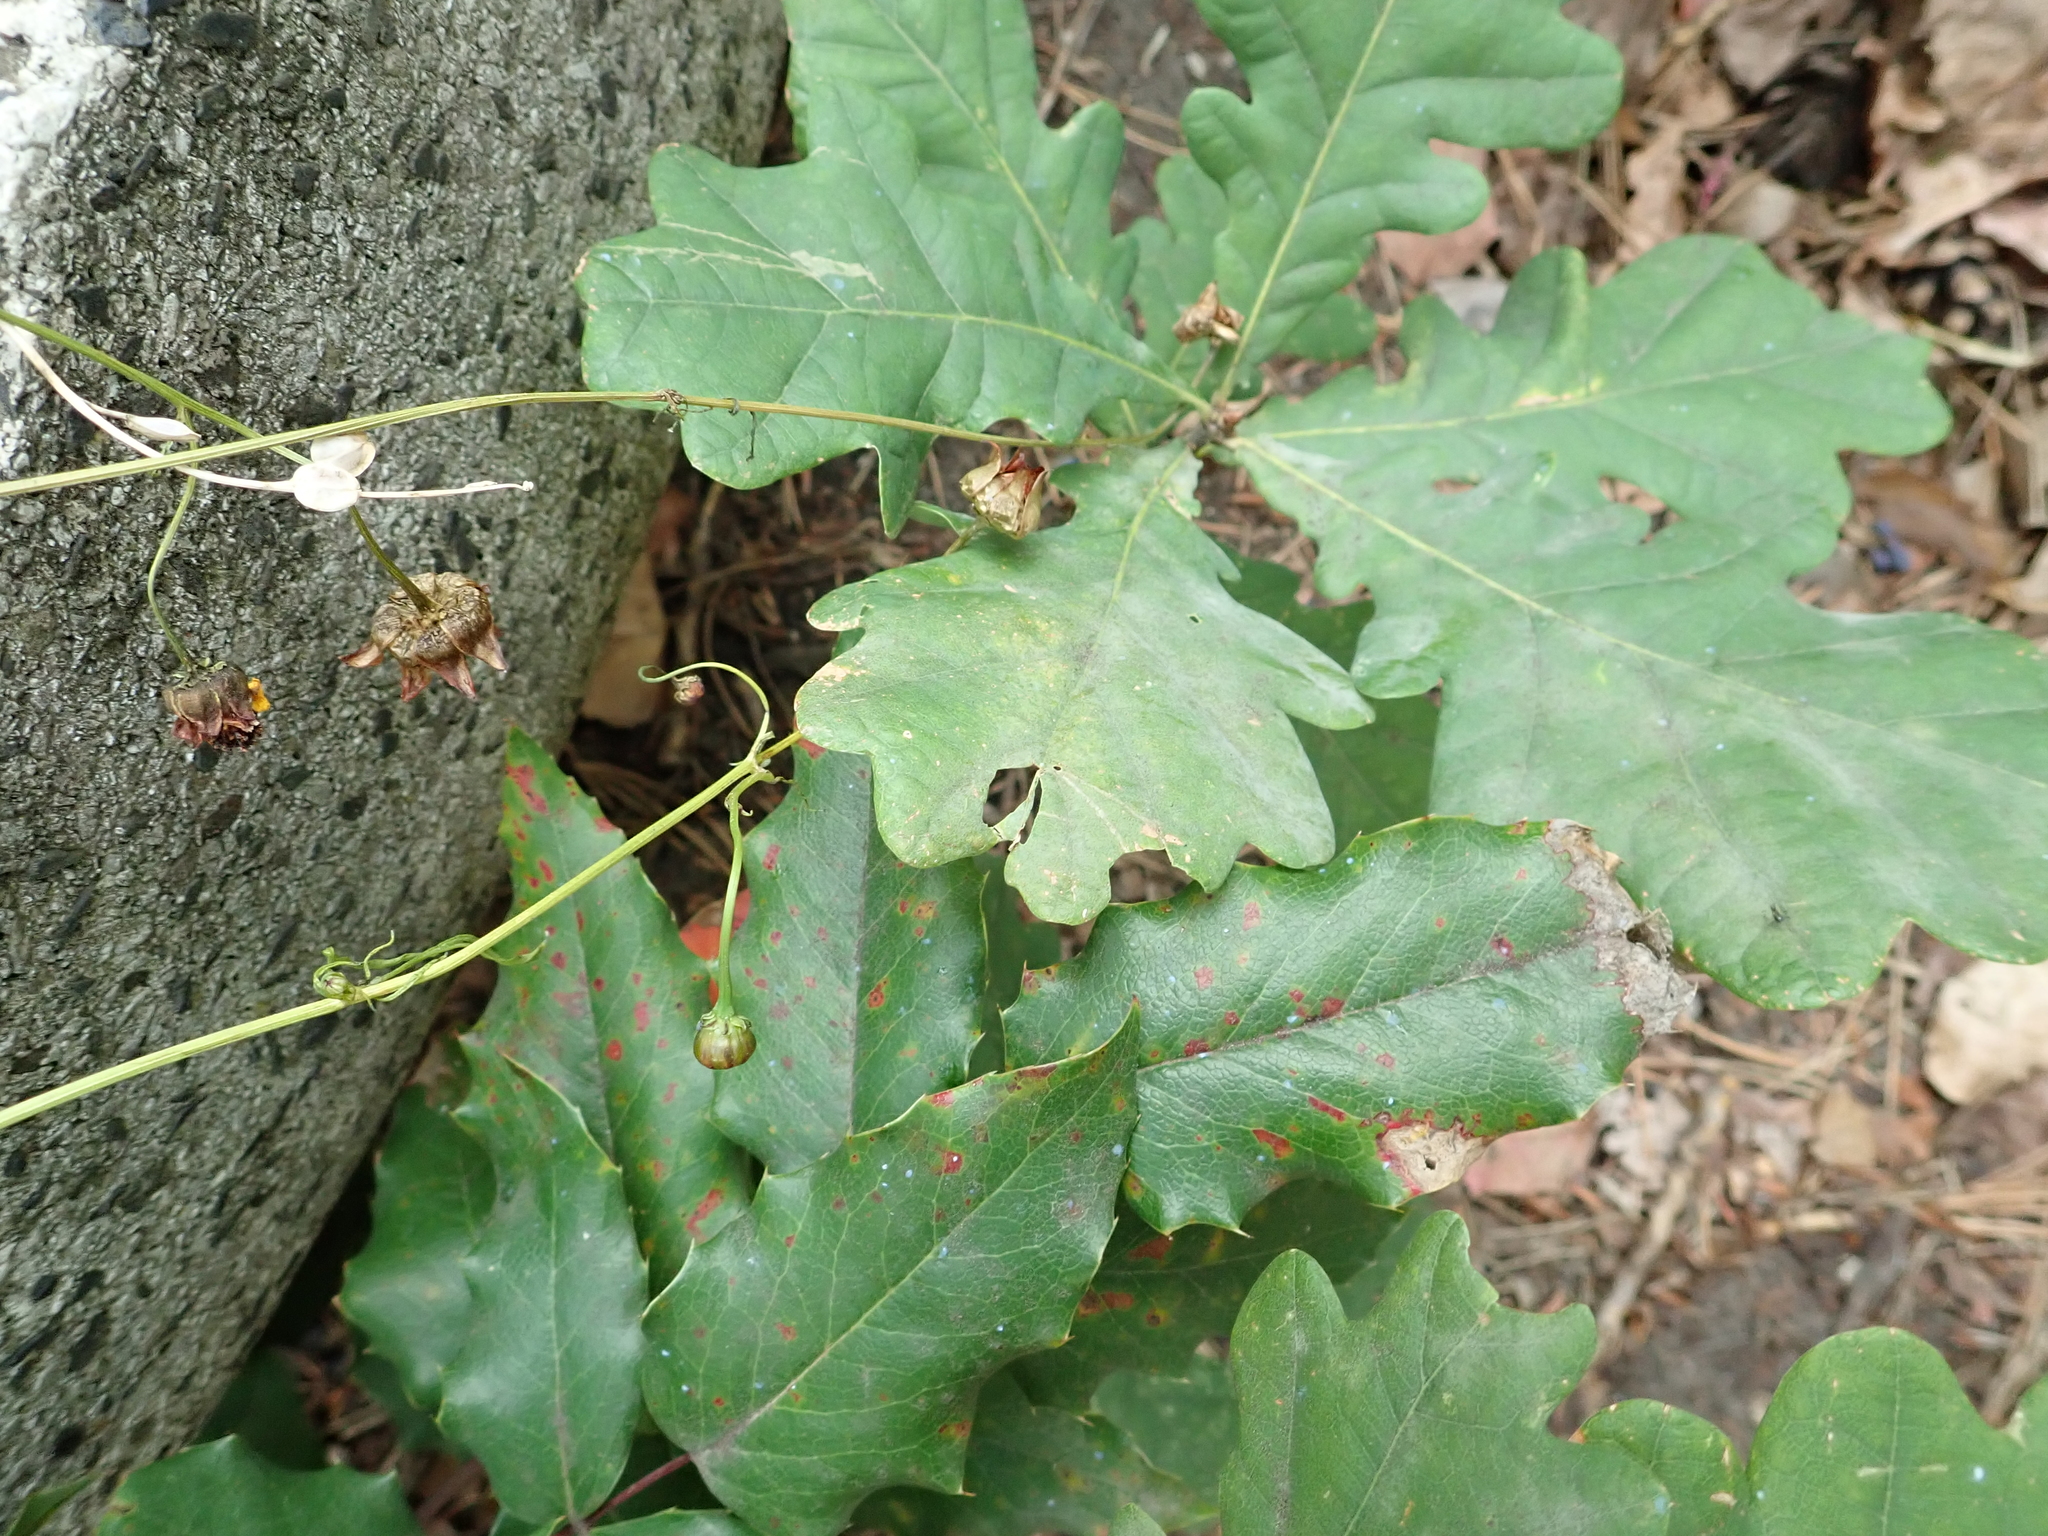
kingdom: Plantae
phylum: Tracheophyta
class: Magnoliopsida
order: Fagales
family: Fagaceae
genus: Quercus
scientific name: Quercus robur
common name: Pedunculate oak
